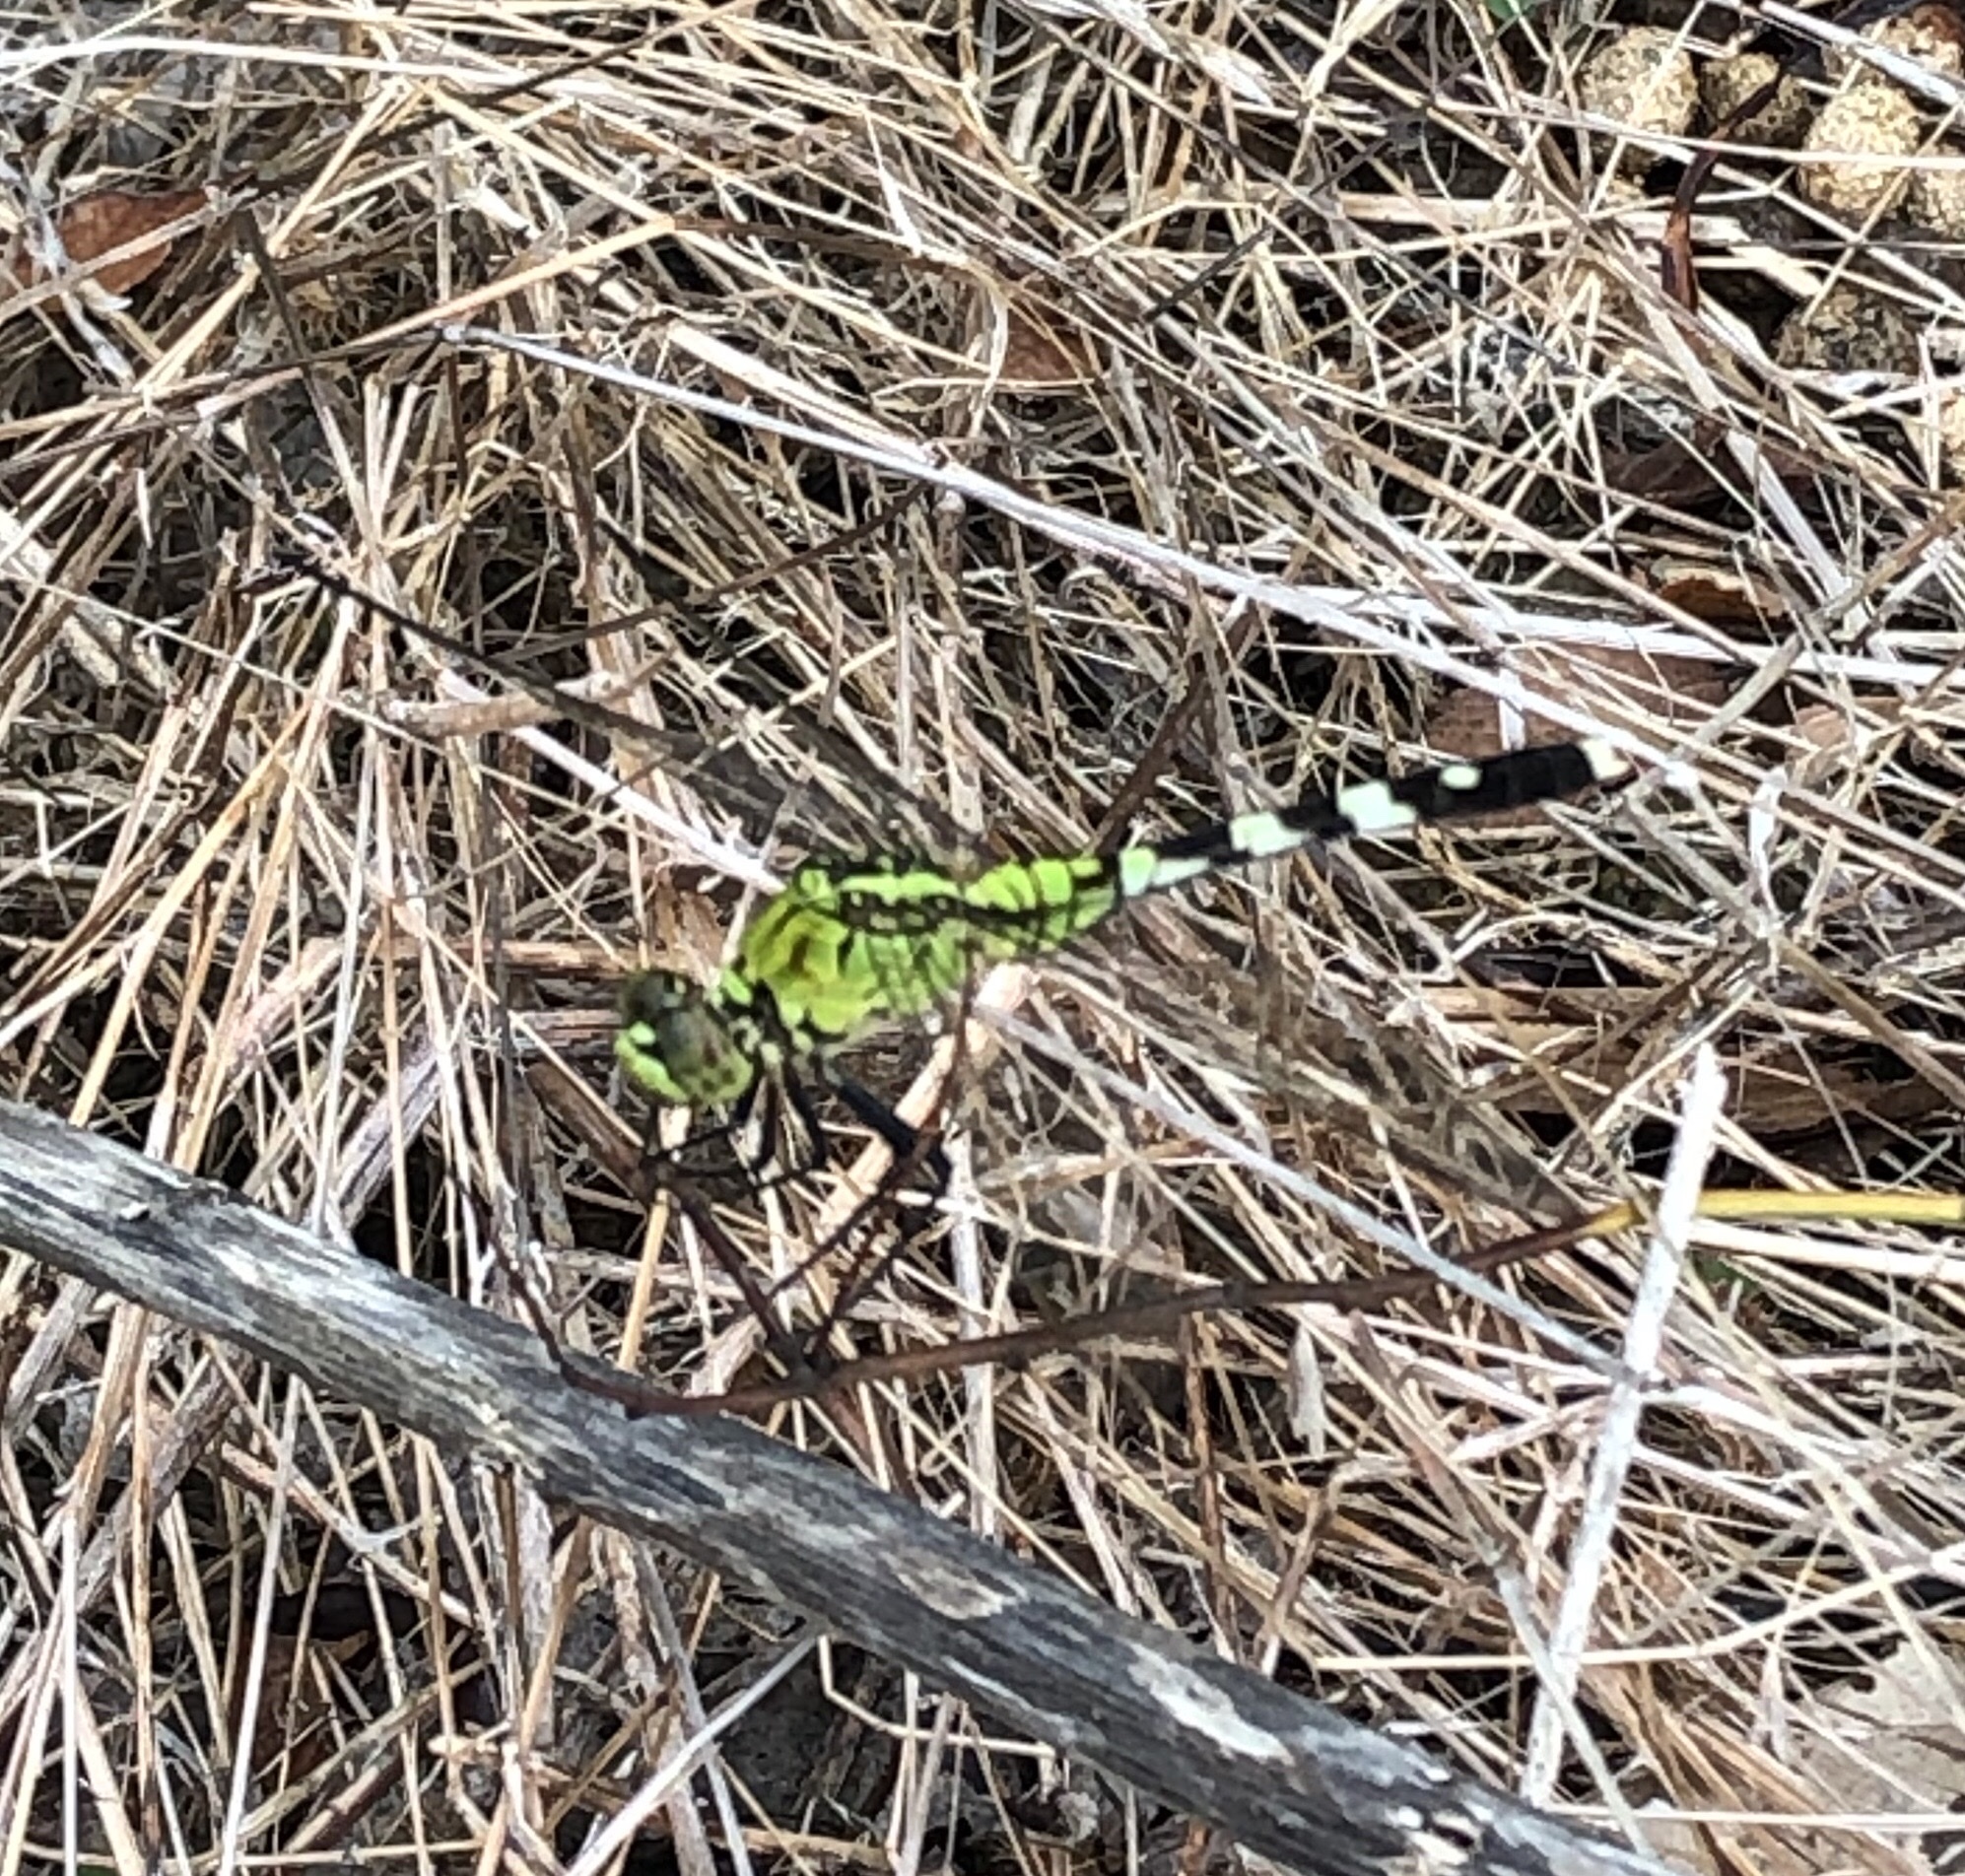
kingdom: Animalia
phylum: Arthropoda
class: Insecta
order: Odonata
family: Libellulidae
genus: Erythemis
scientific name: Erythemis simplicicollis
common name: Eastern pondhawk
